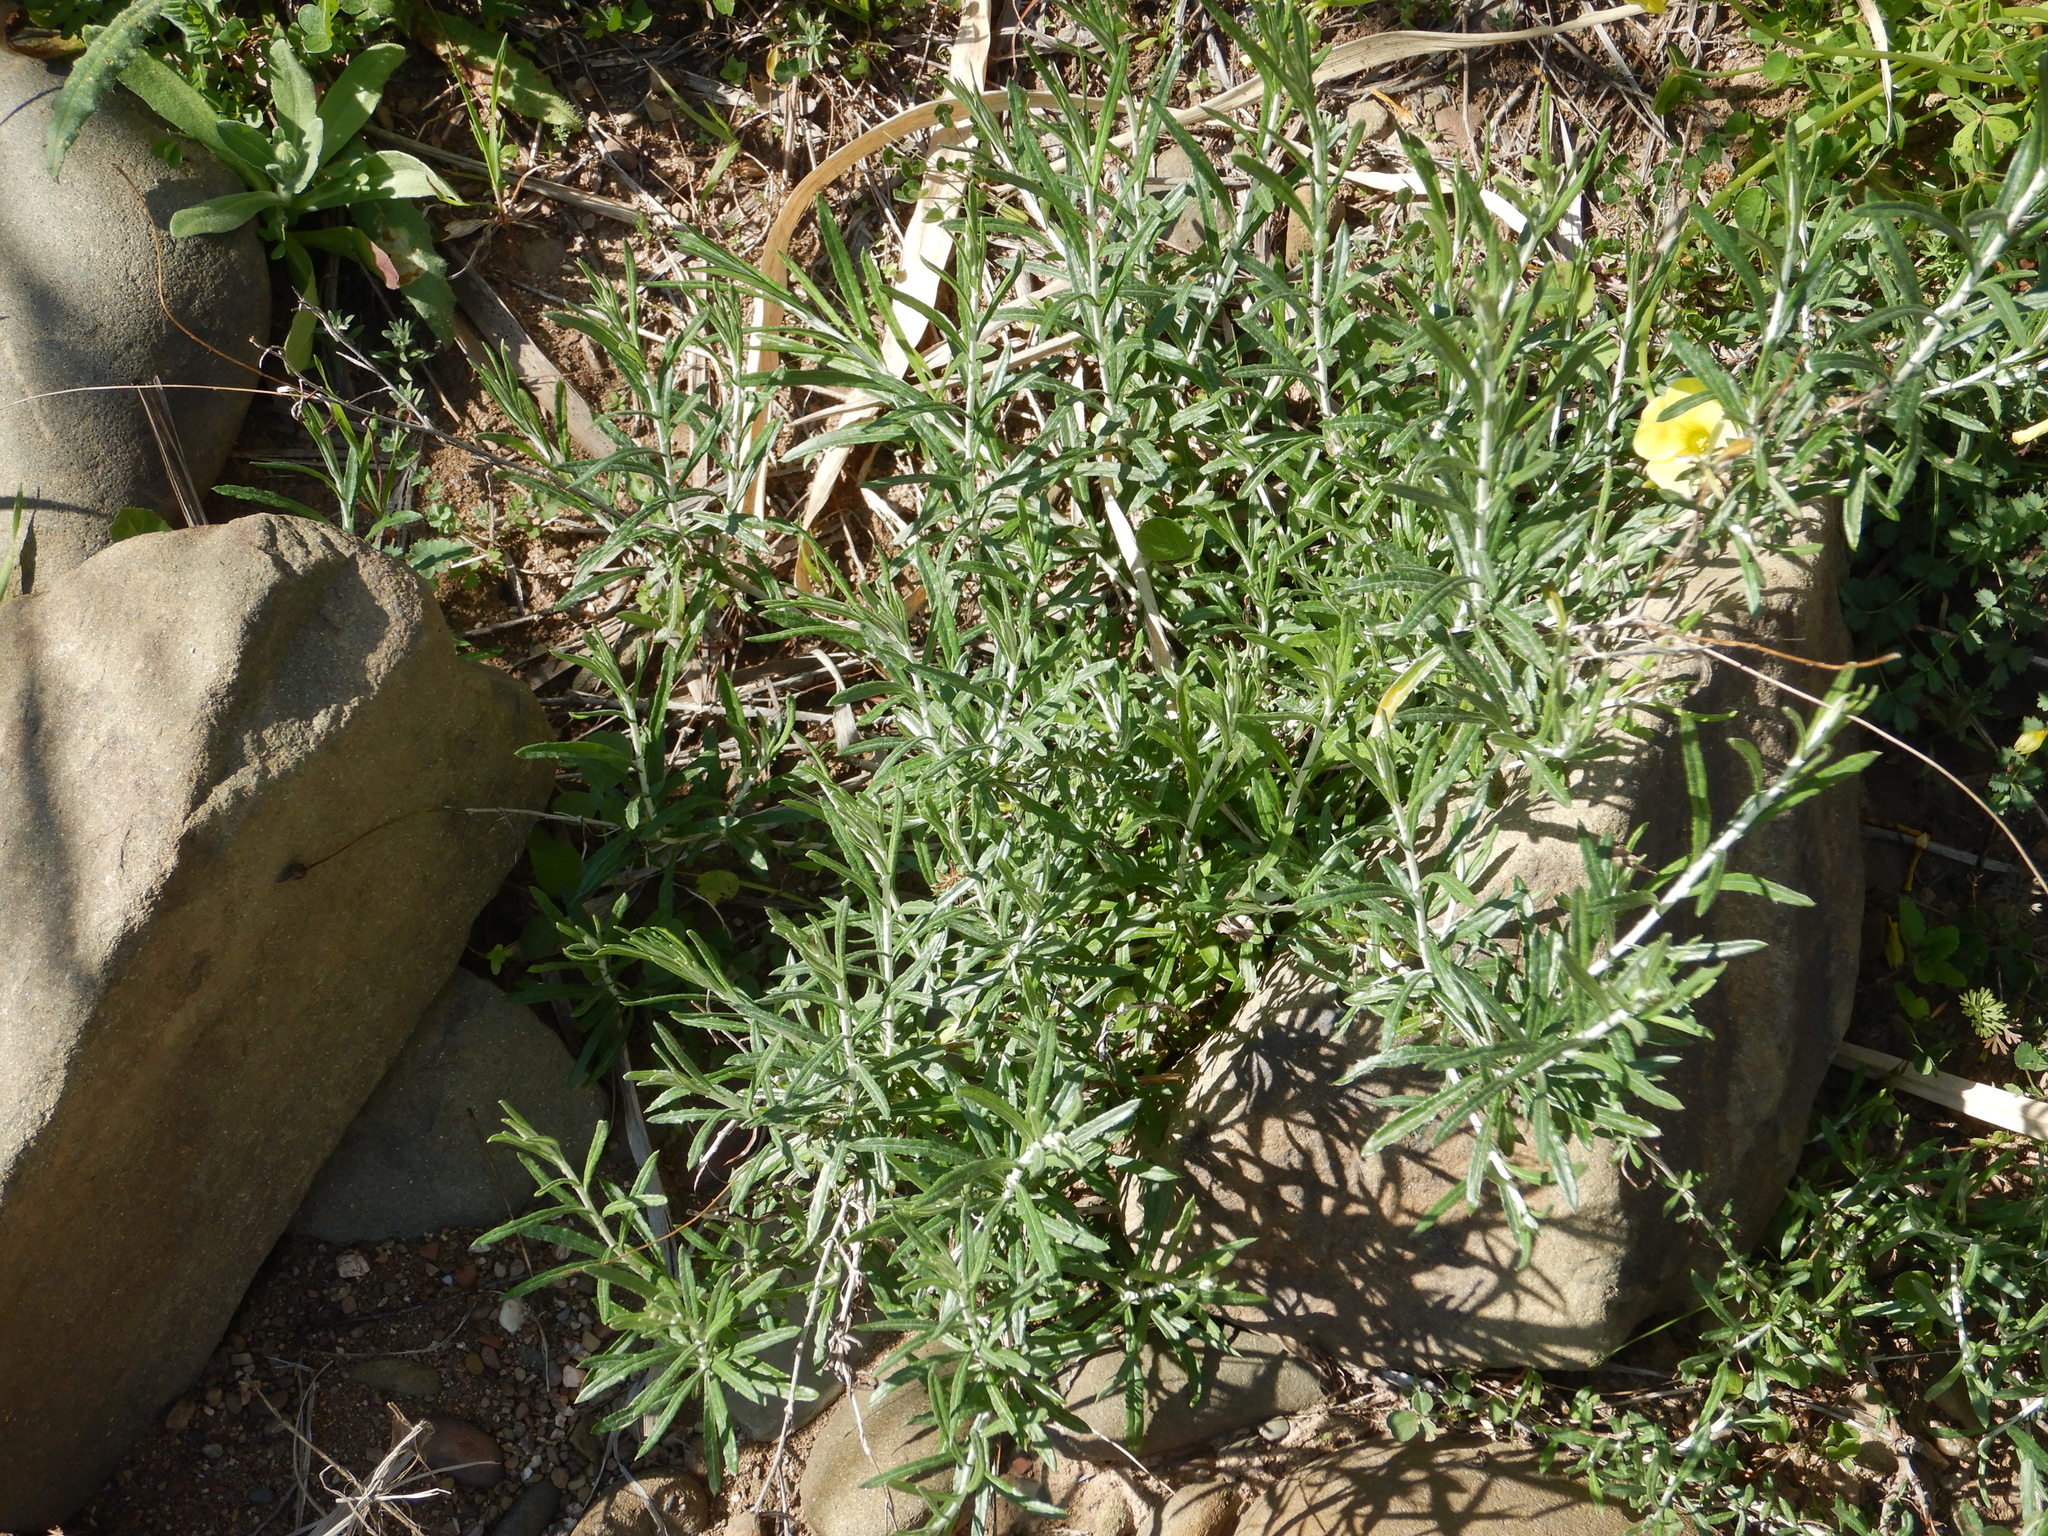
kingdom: Plantae
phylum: Tracheophyta
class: Magnoliopsida
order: Asterales
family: Asteraceae
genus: Phagnalon
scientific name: Phagnalon saxatile
